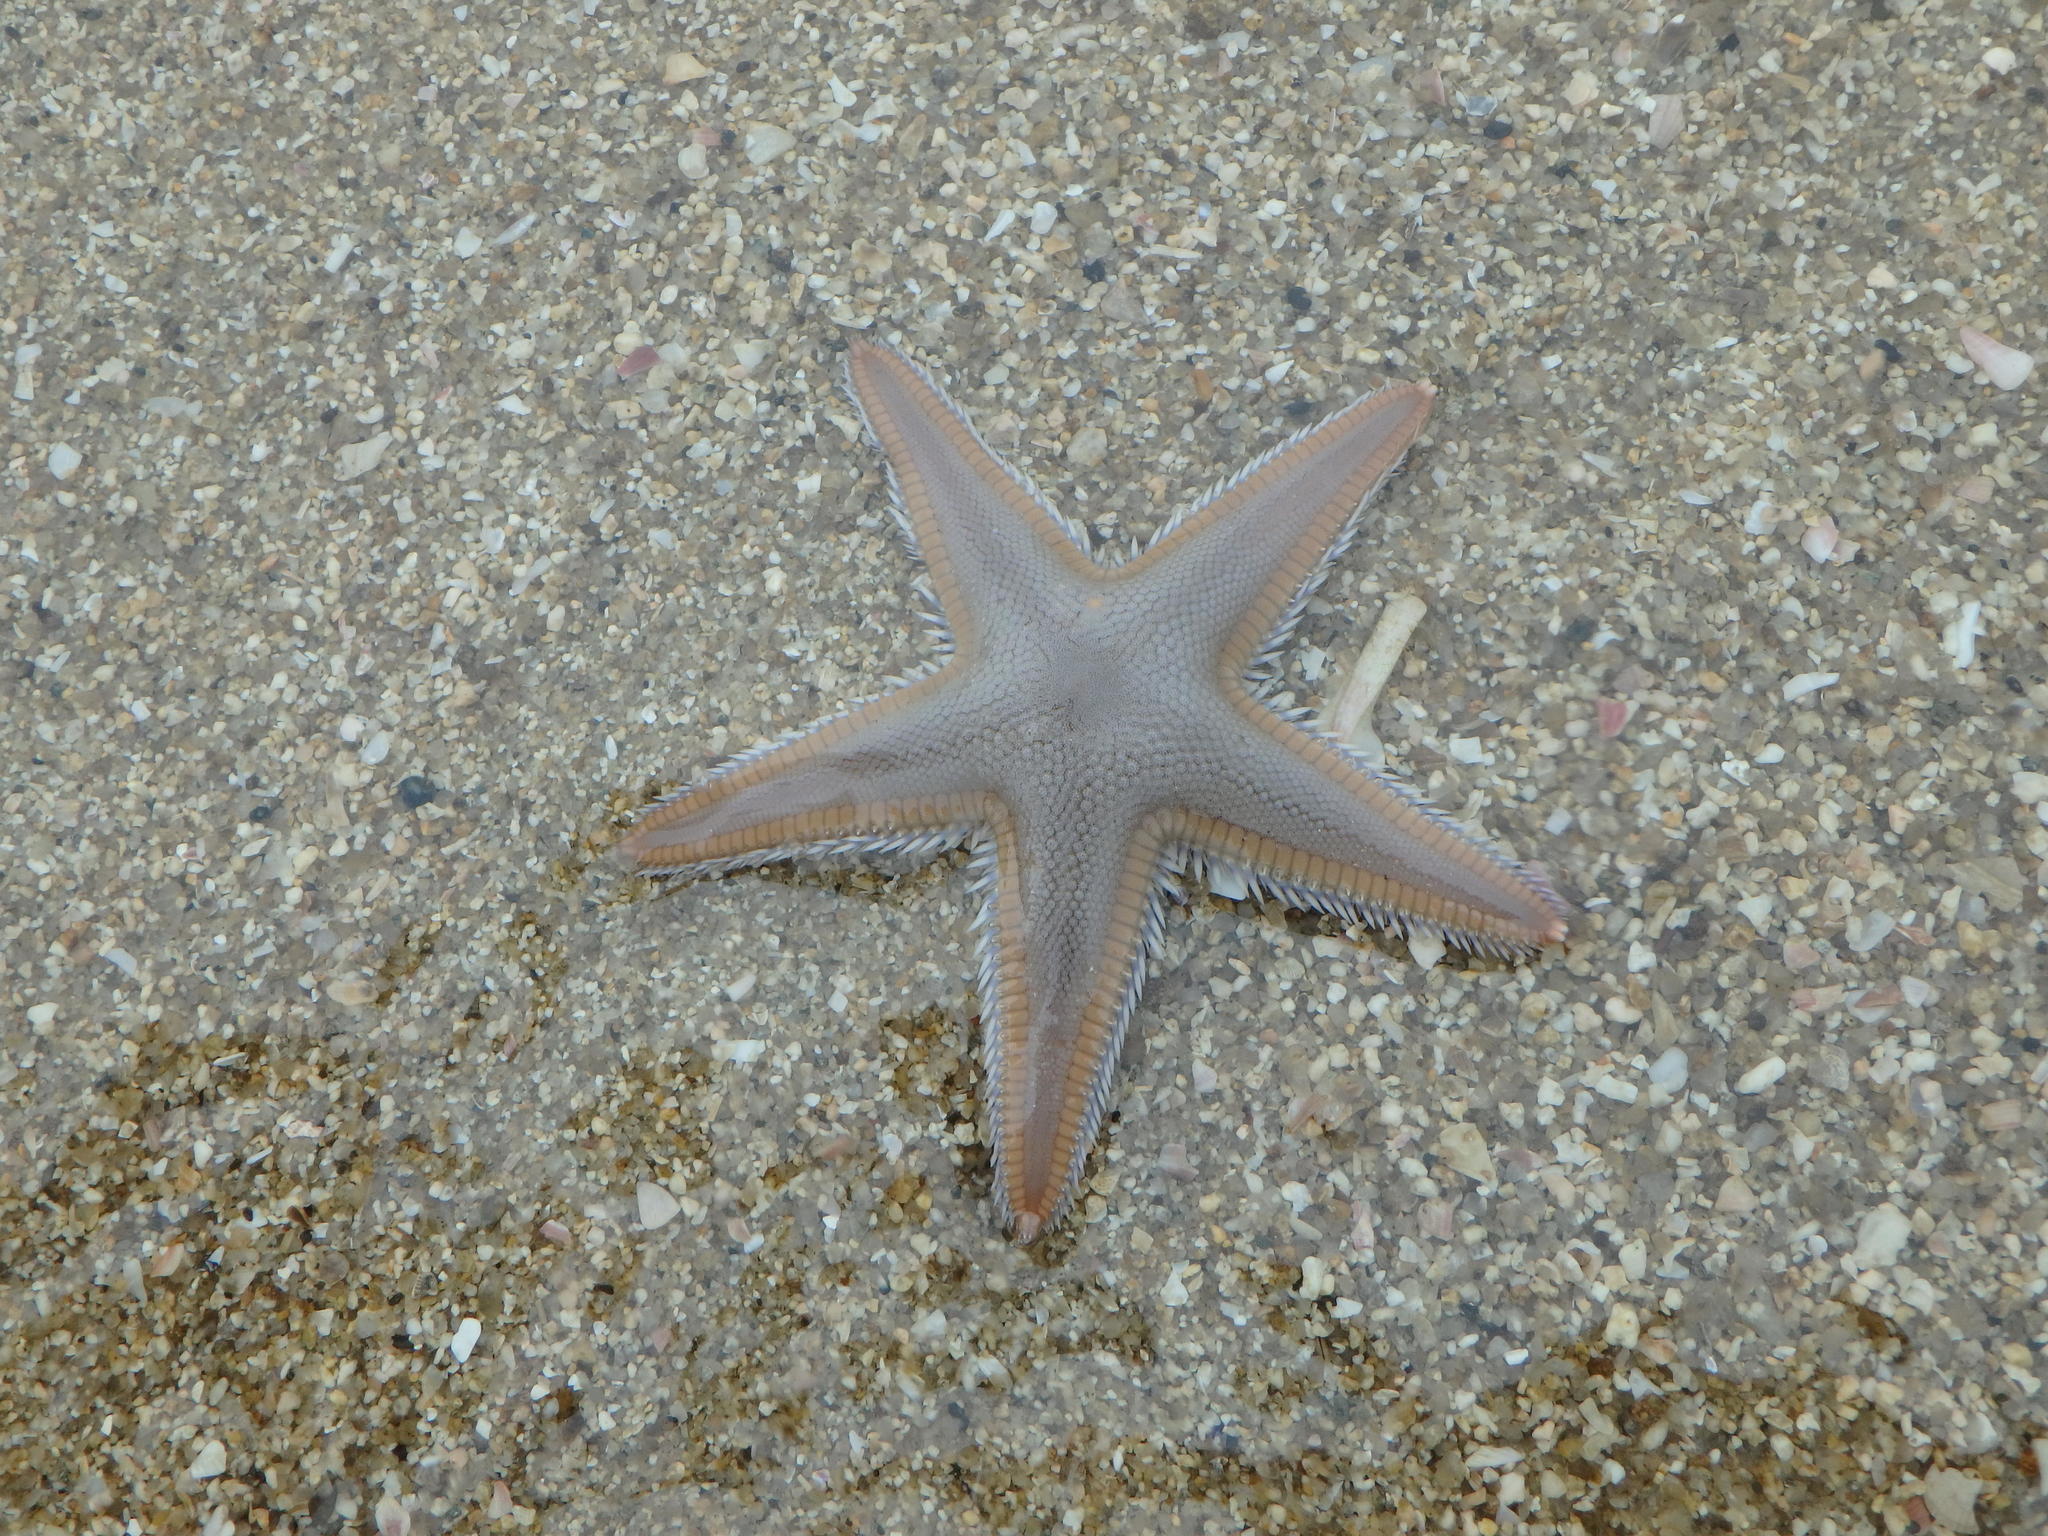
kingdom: Animalia
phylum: Echinodermata
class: Asteroidea
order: Paxillosida
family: Astropectinidae
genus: Astropecten
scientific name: Astropecten scoparius
